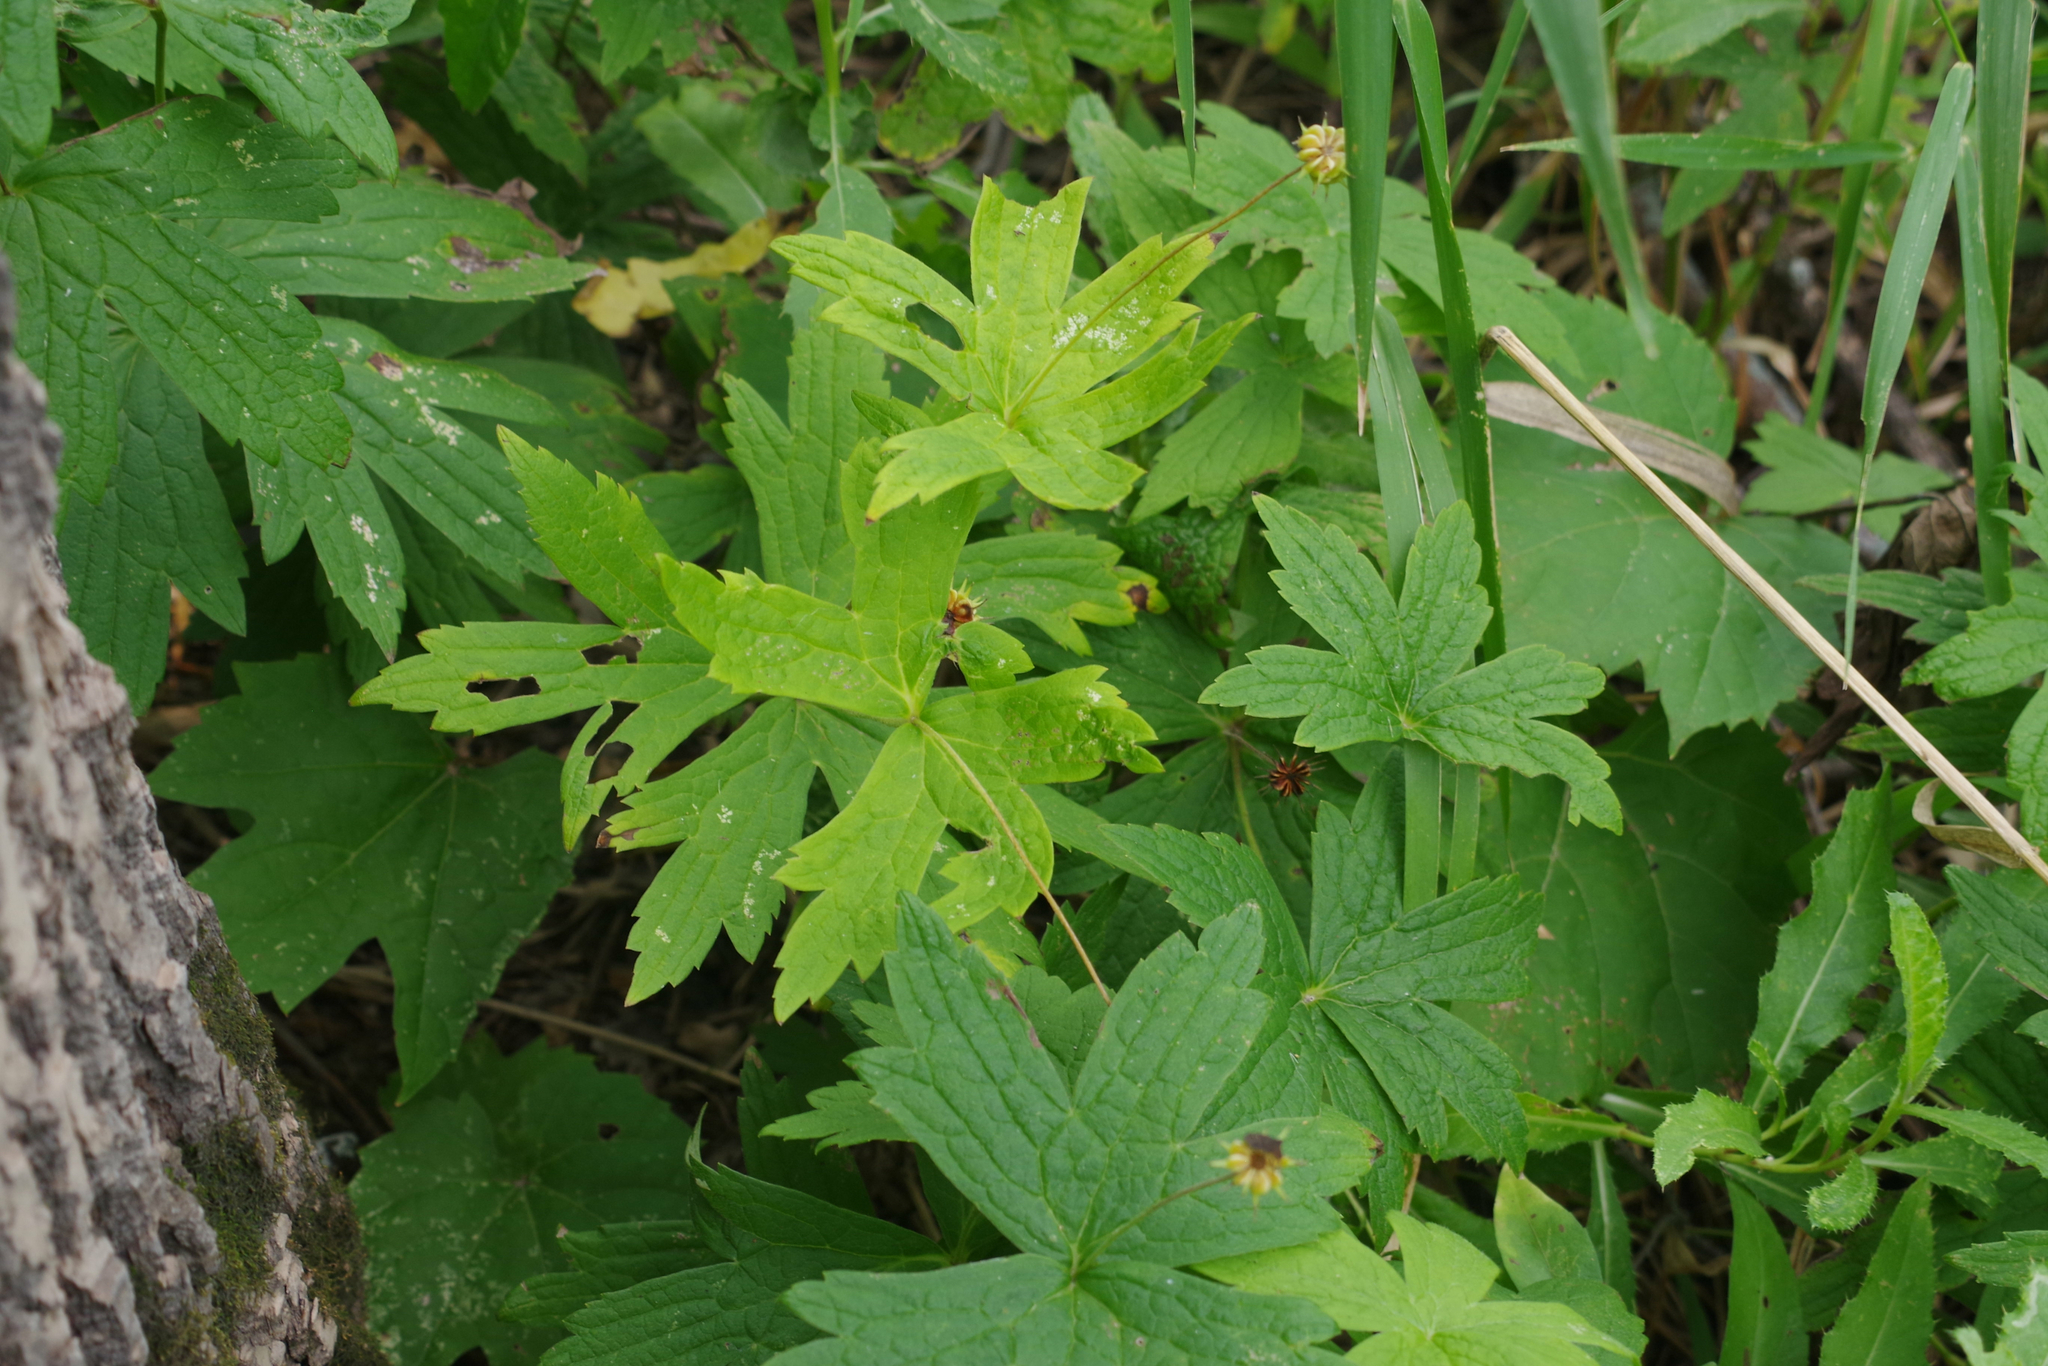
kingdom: Plantae
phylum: Tracheophyta
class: Magnoliopsida
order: Ranunculales
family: Ranunculaceae
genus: Anemonastrum
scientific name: Anemonastrum canadense
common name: Canada anemone
